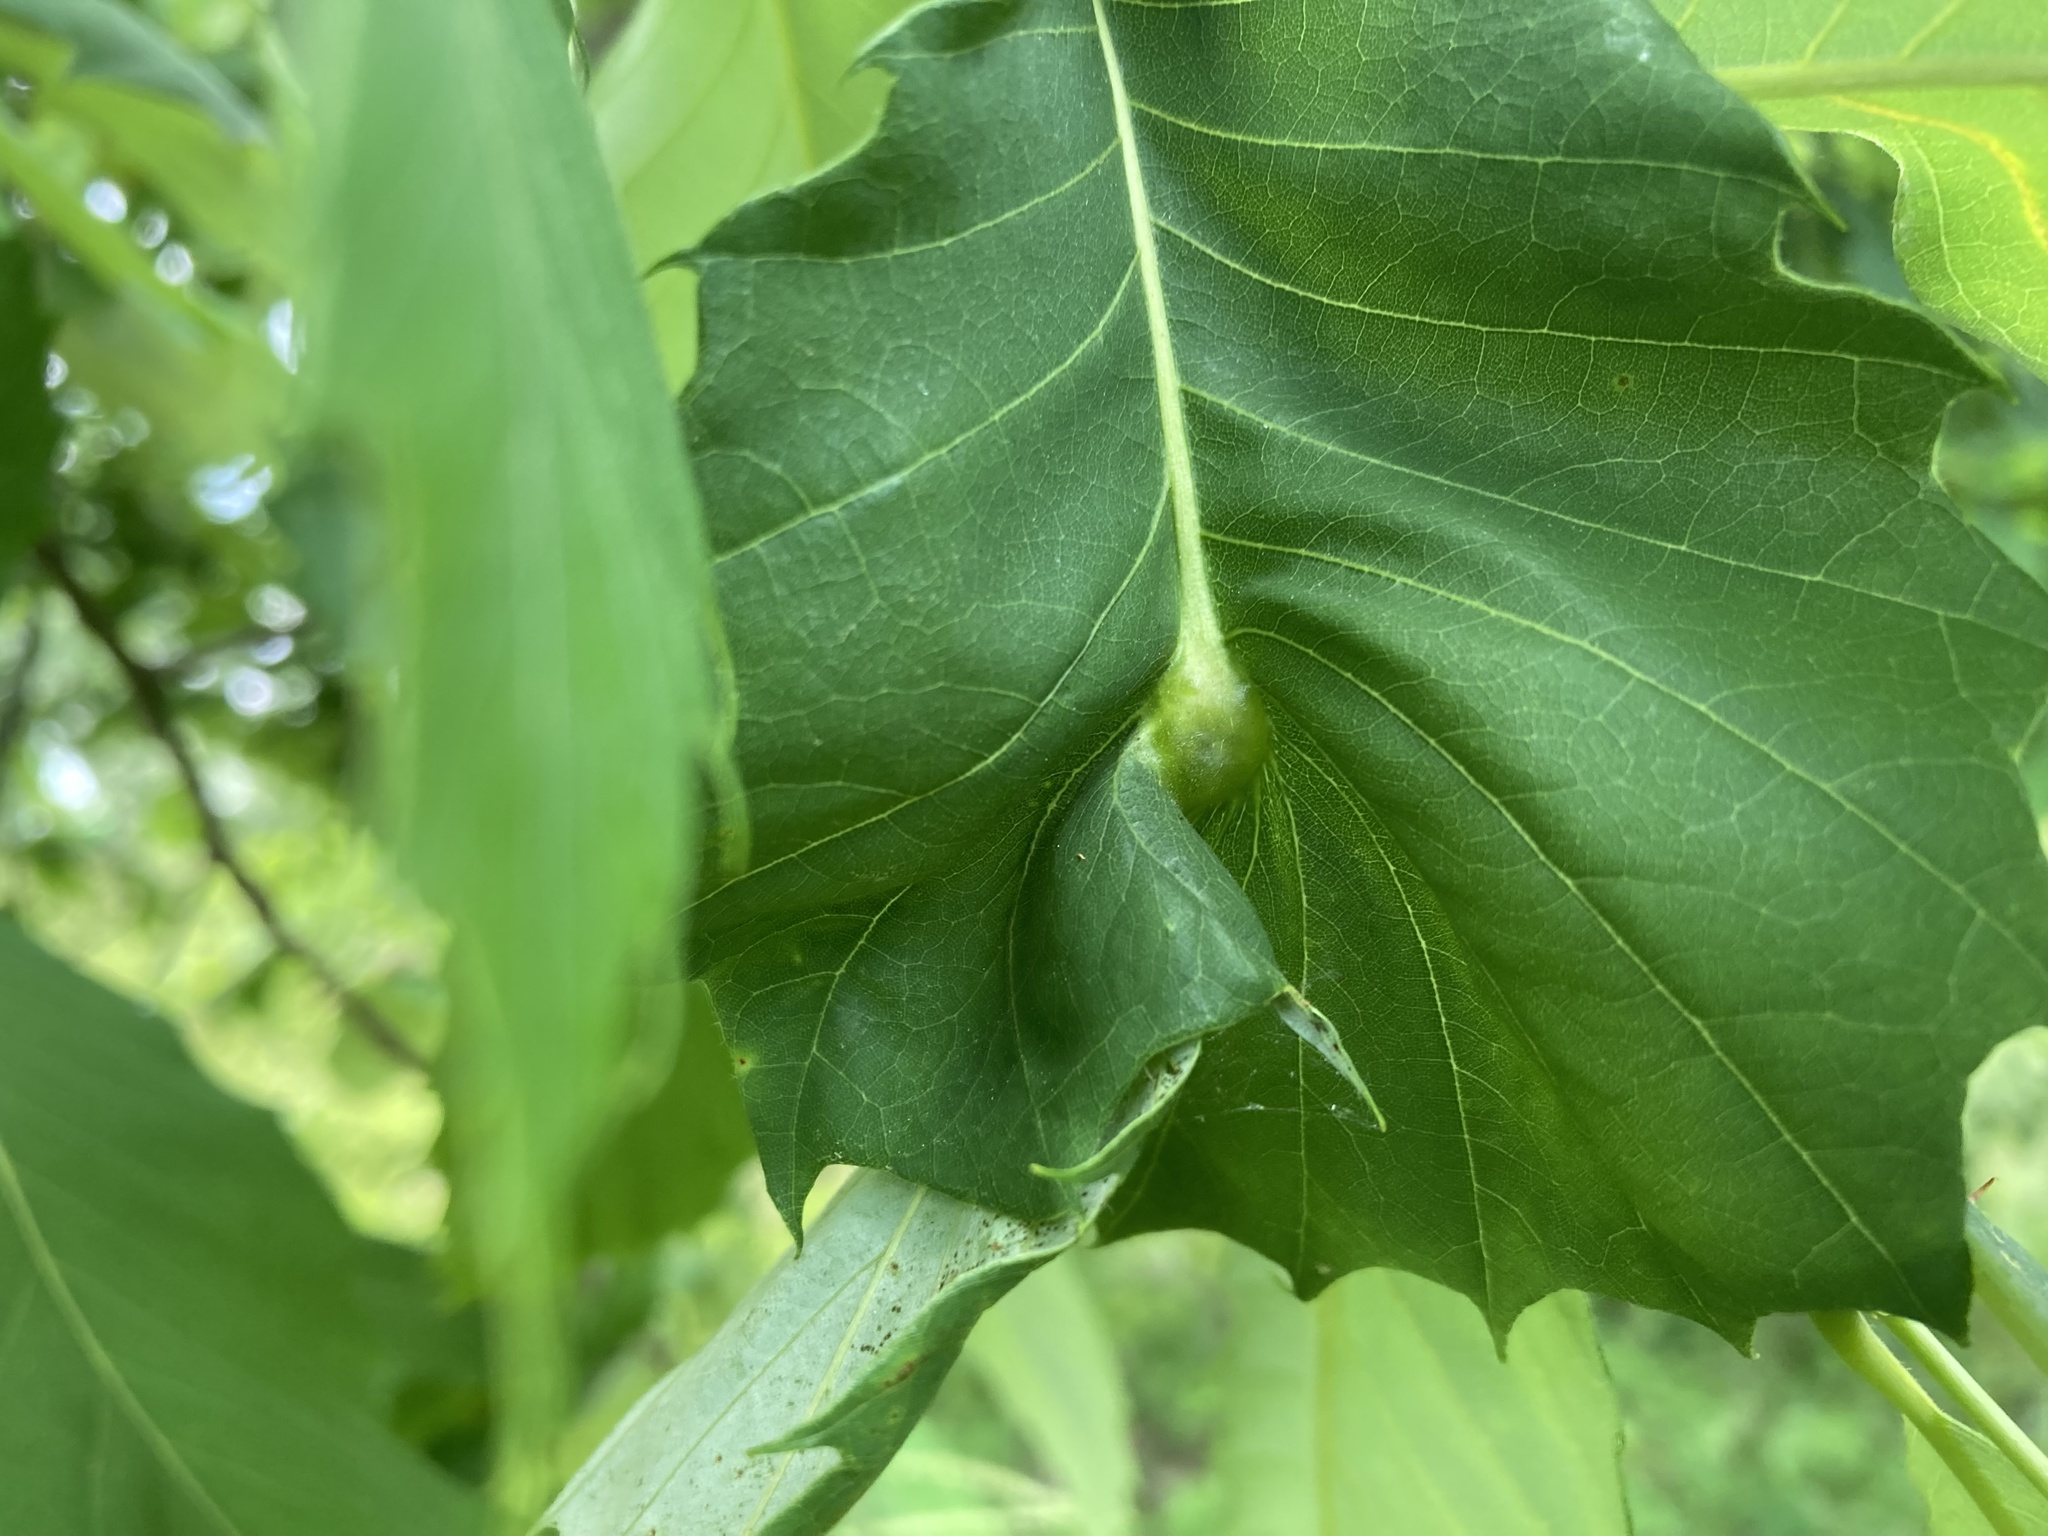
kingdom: Animalia
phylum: Arthropoda
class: Insecta
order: Hymenoptera
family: Cynipidae
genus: Dryocosmus
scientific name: Dryocosmus kuriphilus
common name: Asian chestnut gall wasp
